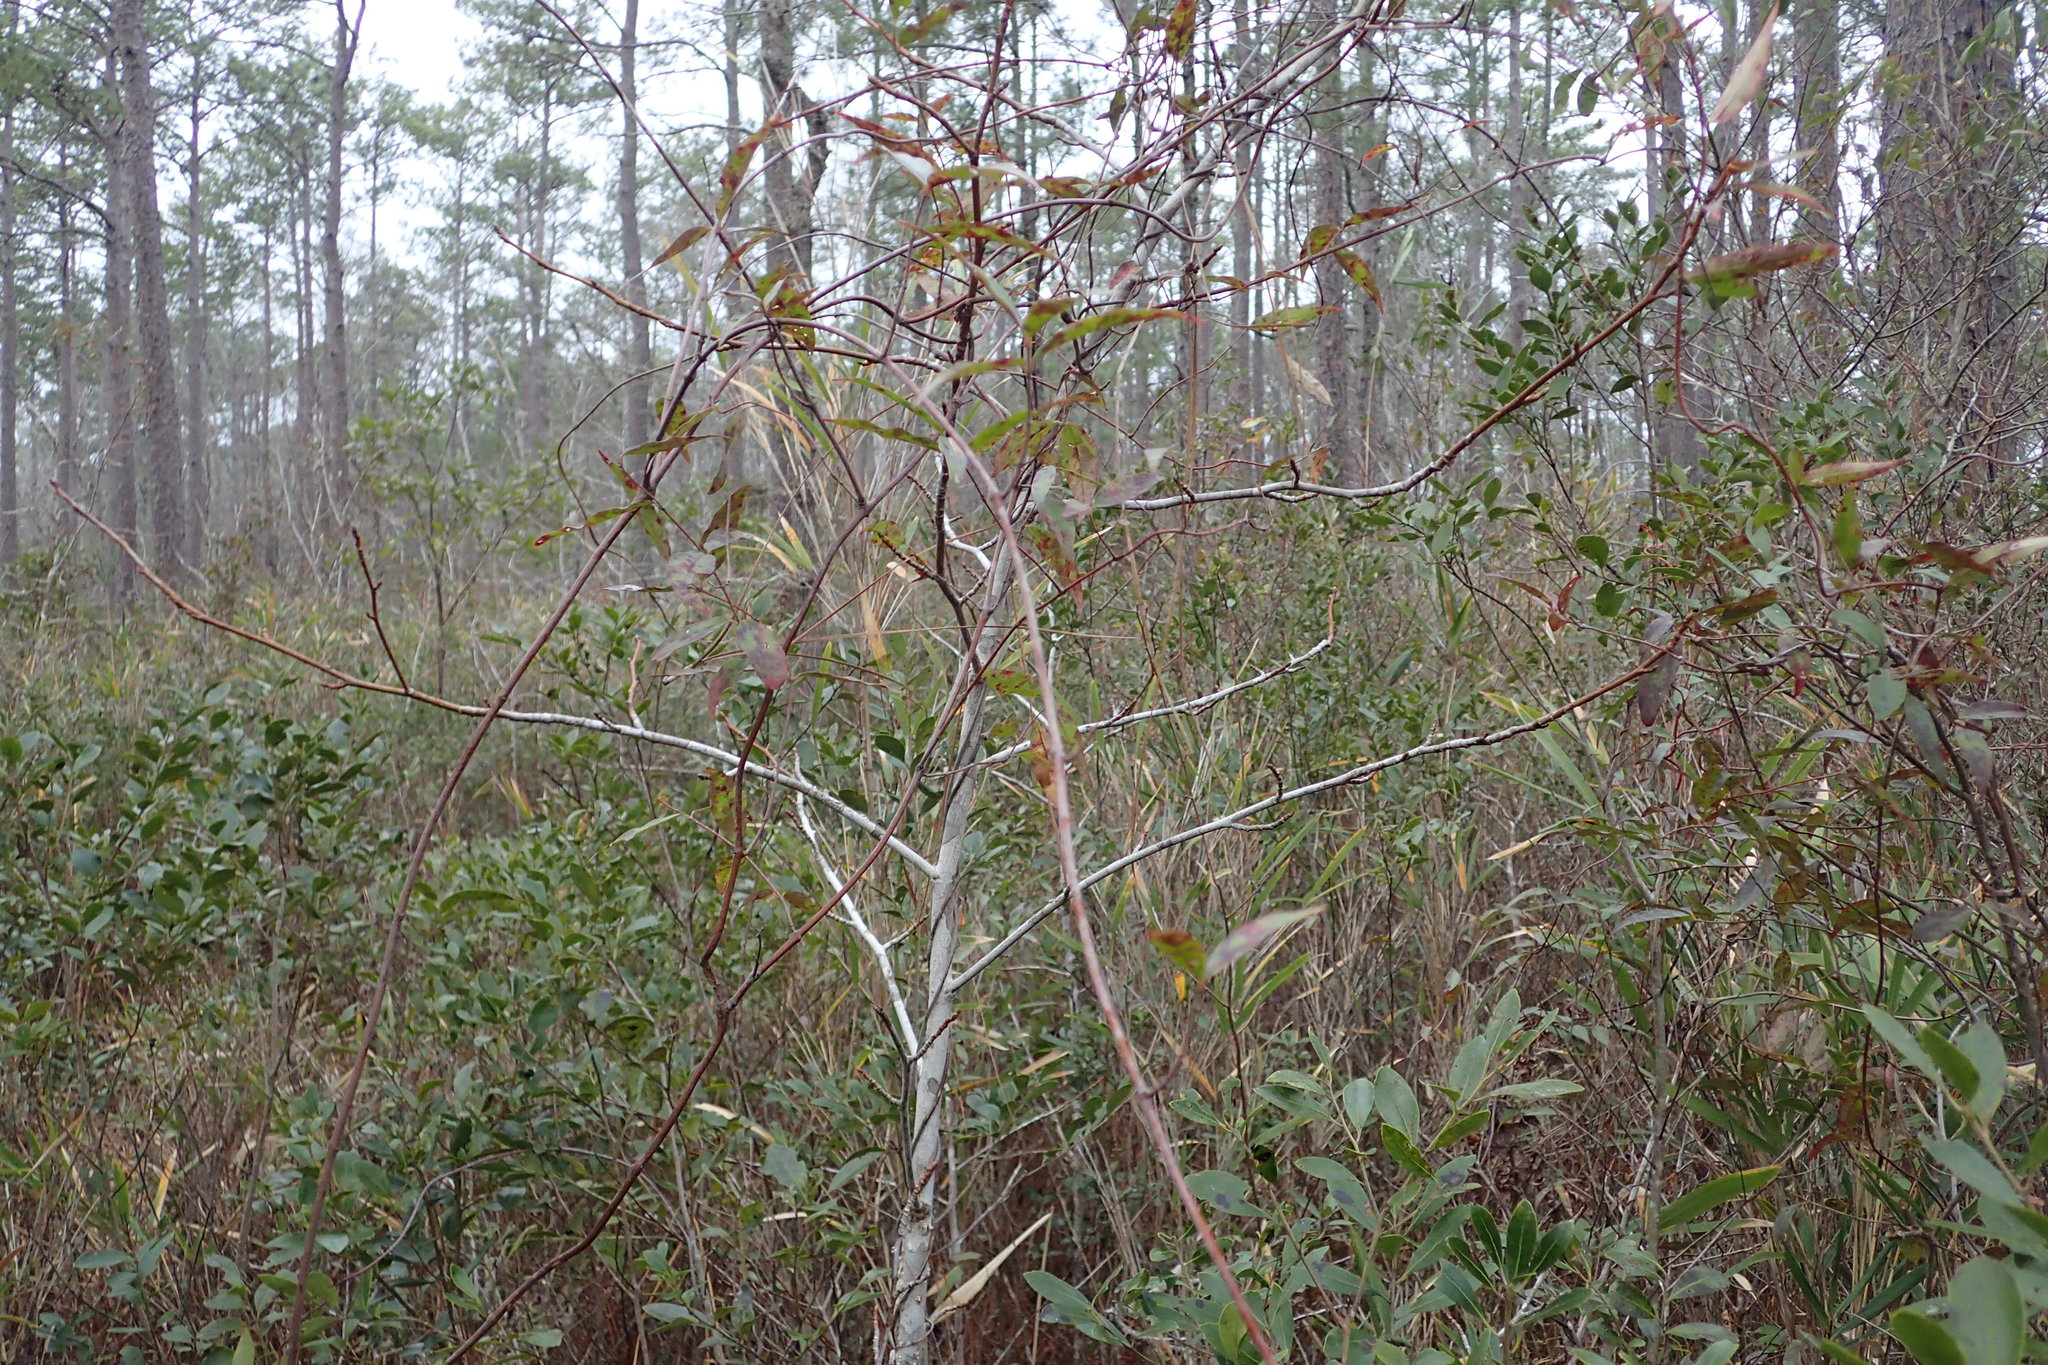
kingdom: Plantae
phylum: Tracheophyta
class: Magnoliopsida
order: Gentianales
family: Gelsemiaceae
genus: Gelsemium
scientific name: Gelsemium sempervirens
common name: Carolina-jasmine
